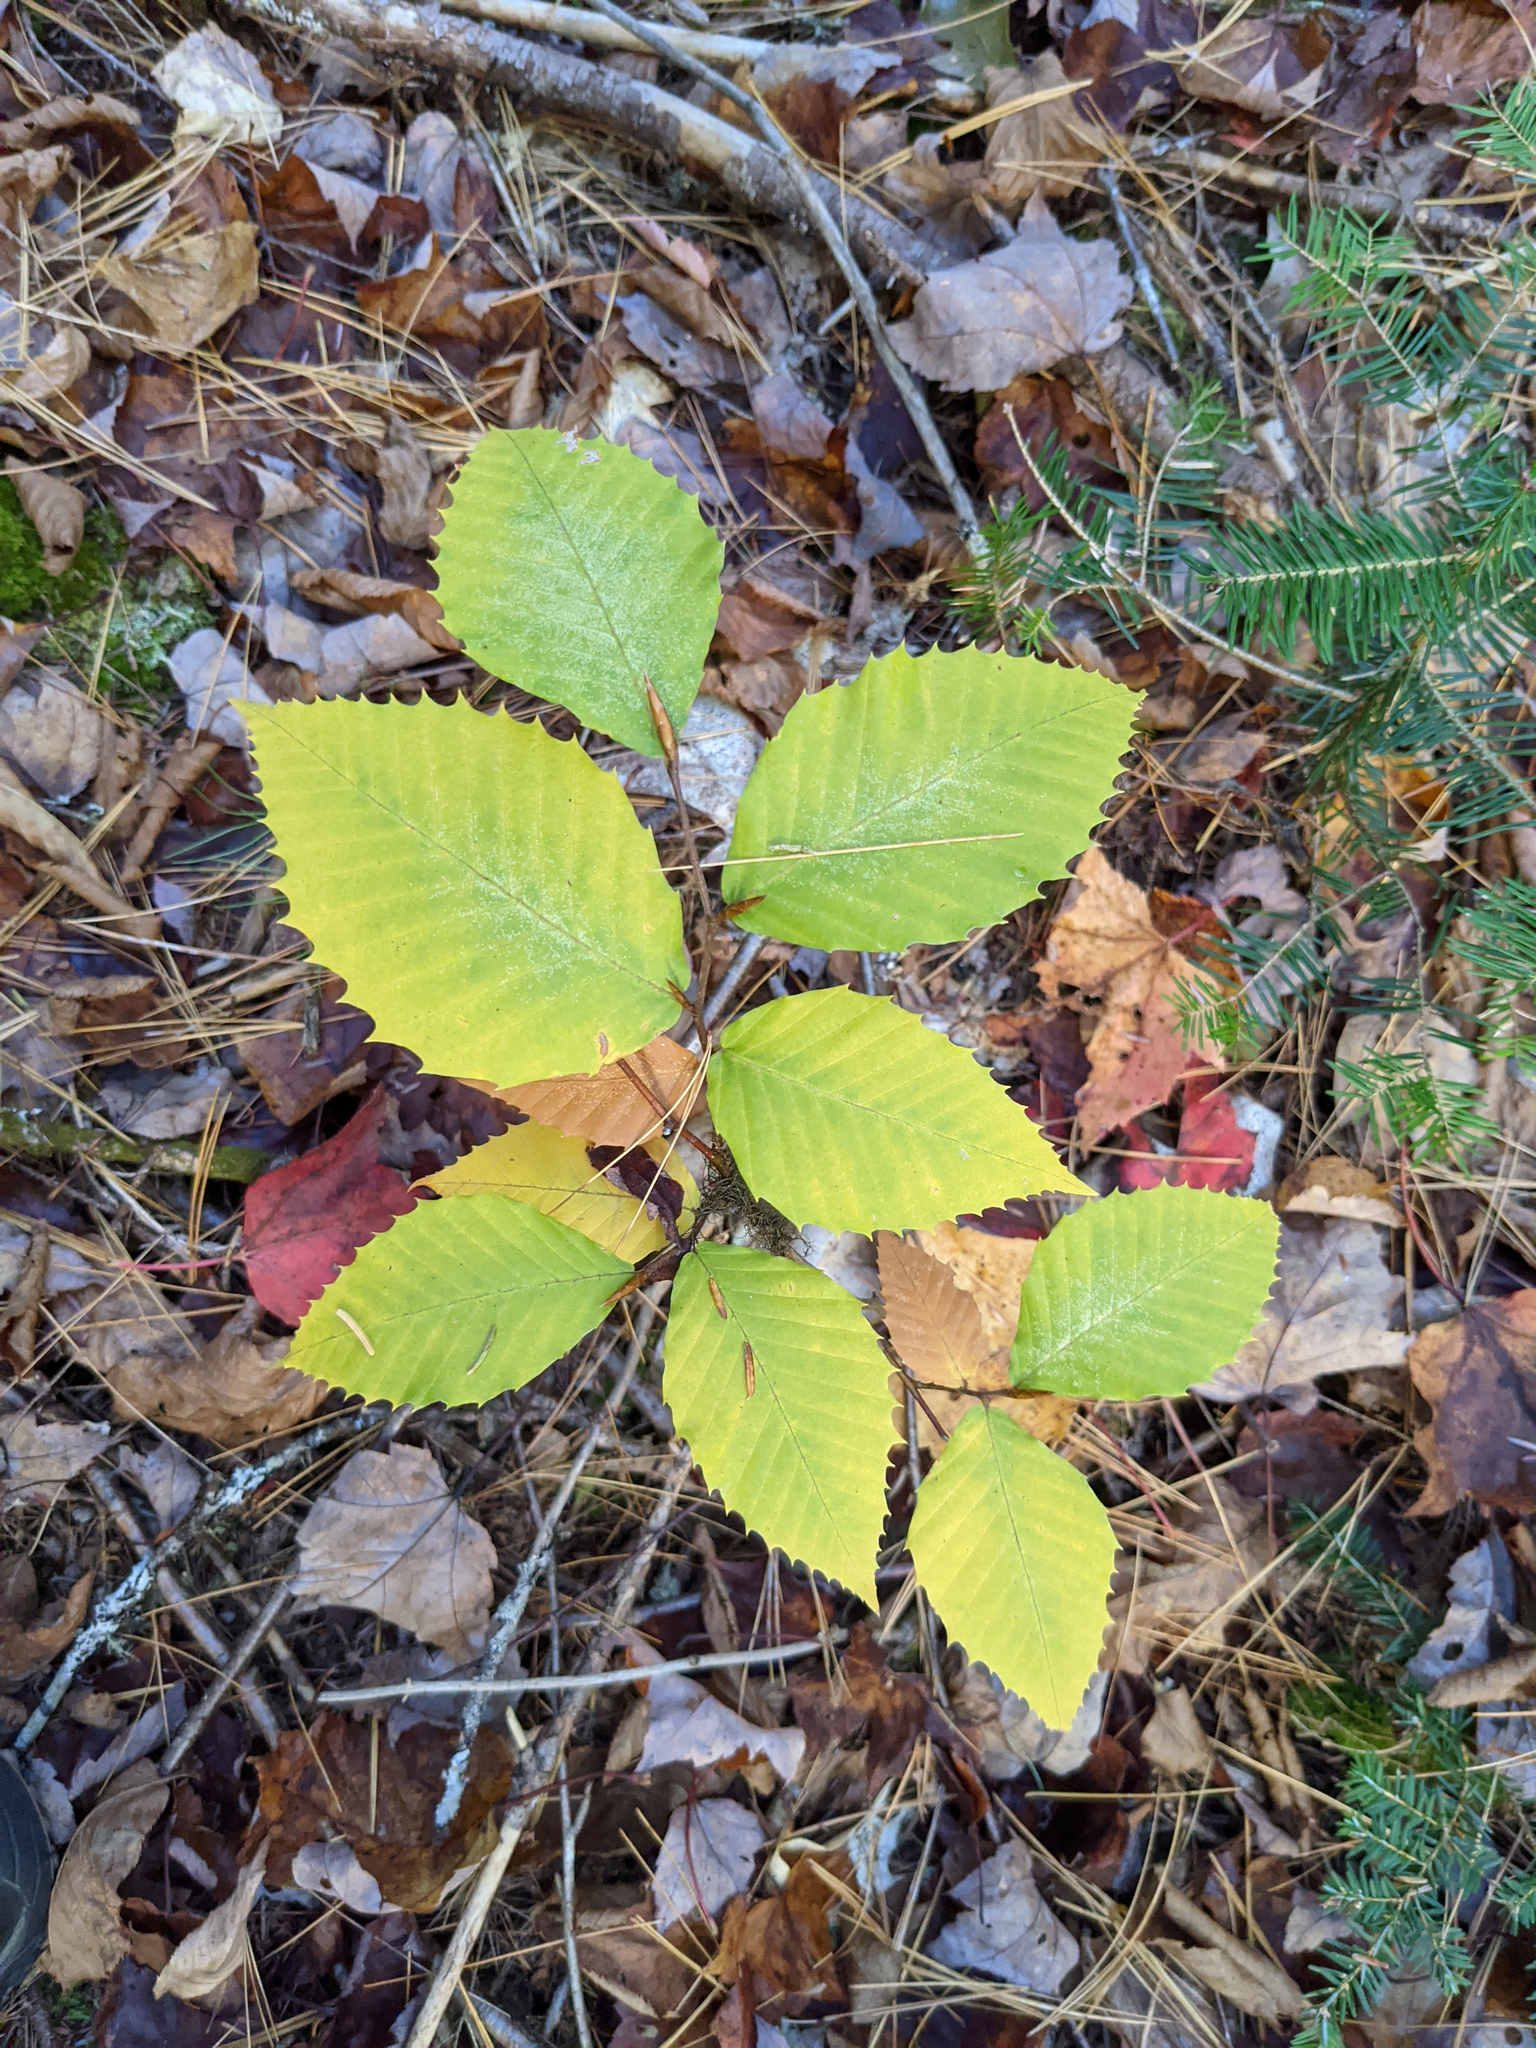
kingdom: Plantae
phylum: Tracheophyta
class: Magnoliopsida
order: Fagales
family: Fagaceae
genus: Fagus
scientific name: Fagus grandifolia
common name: American beech
